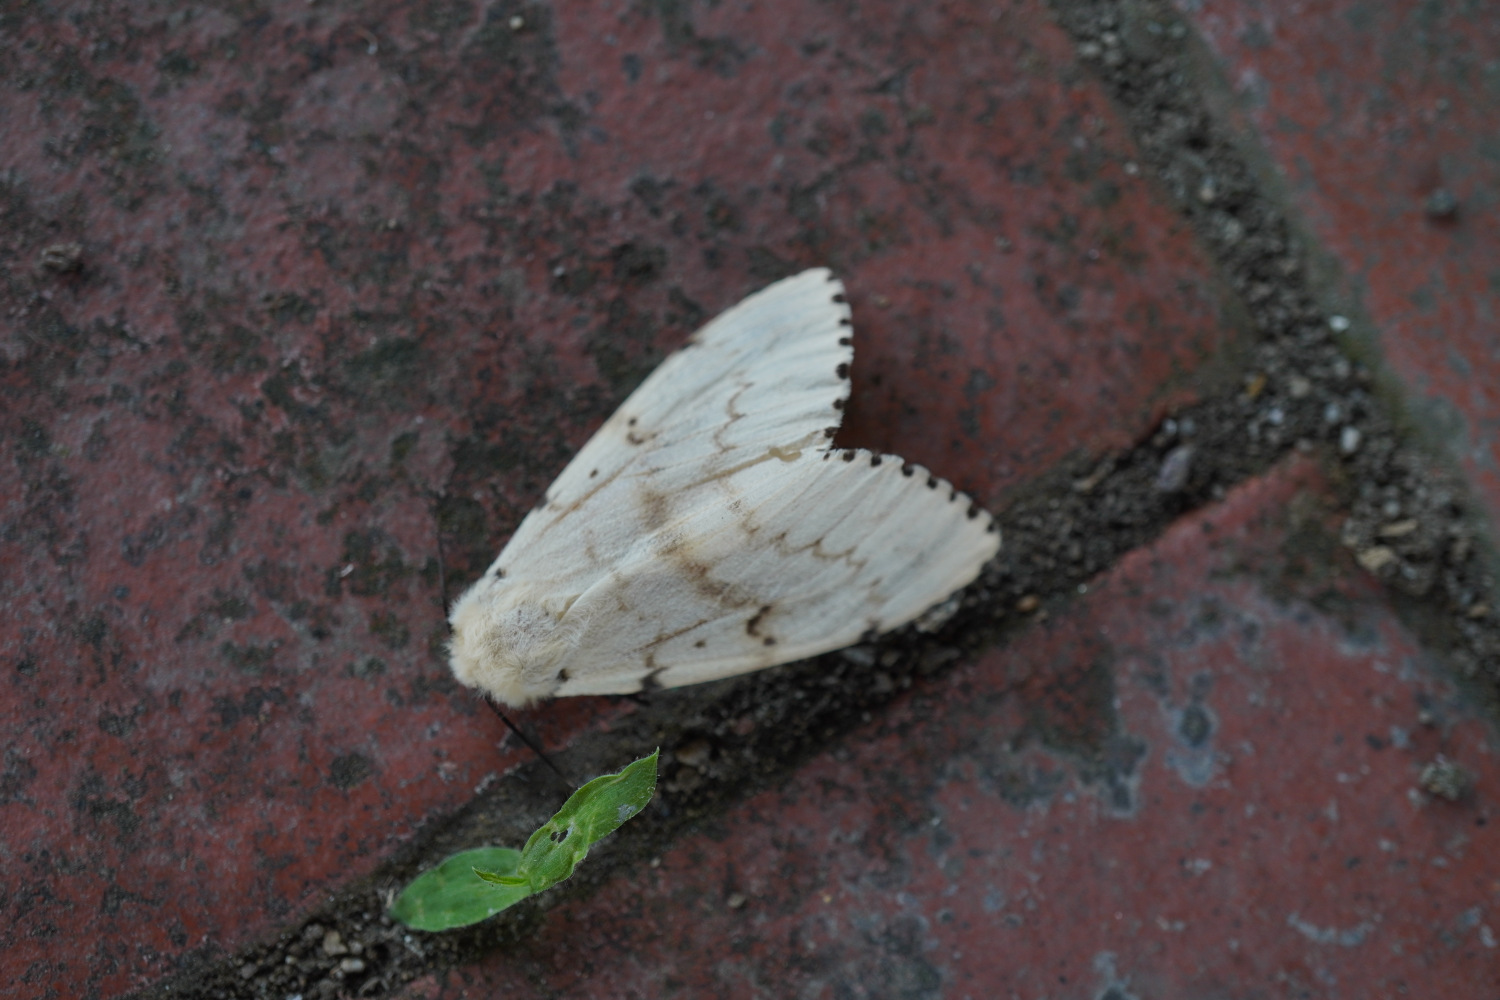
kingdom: Animalia
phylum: Arthropoda
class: Insecta
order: Lepidoptera
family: Erebidae
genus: Lymantria
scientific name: Lymantria dispar
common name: Gypsy moth
